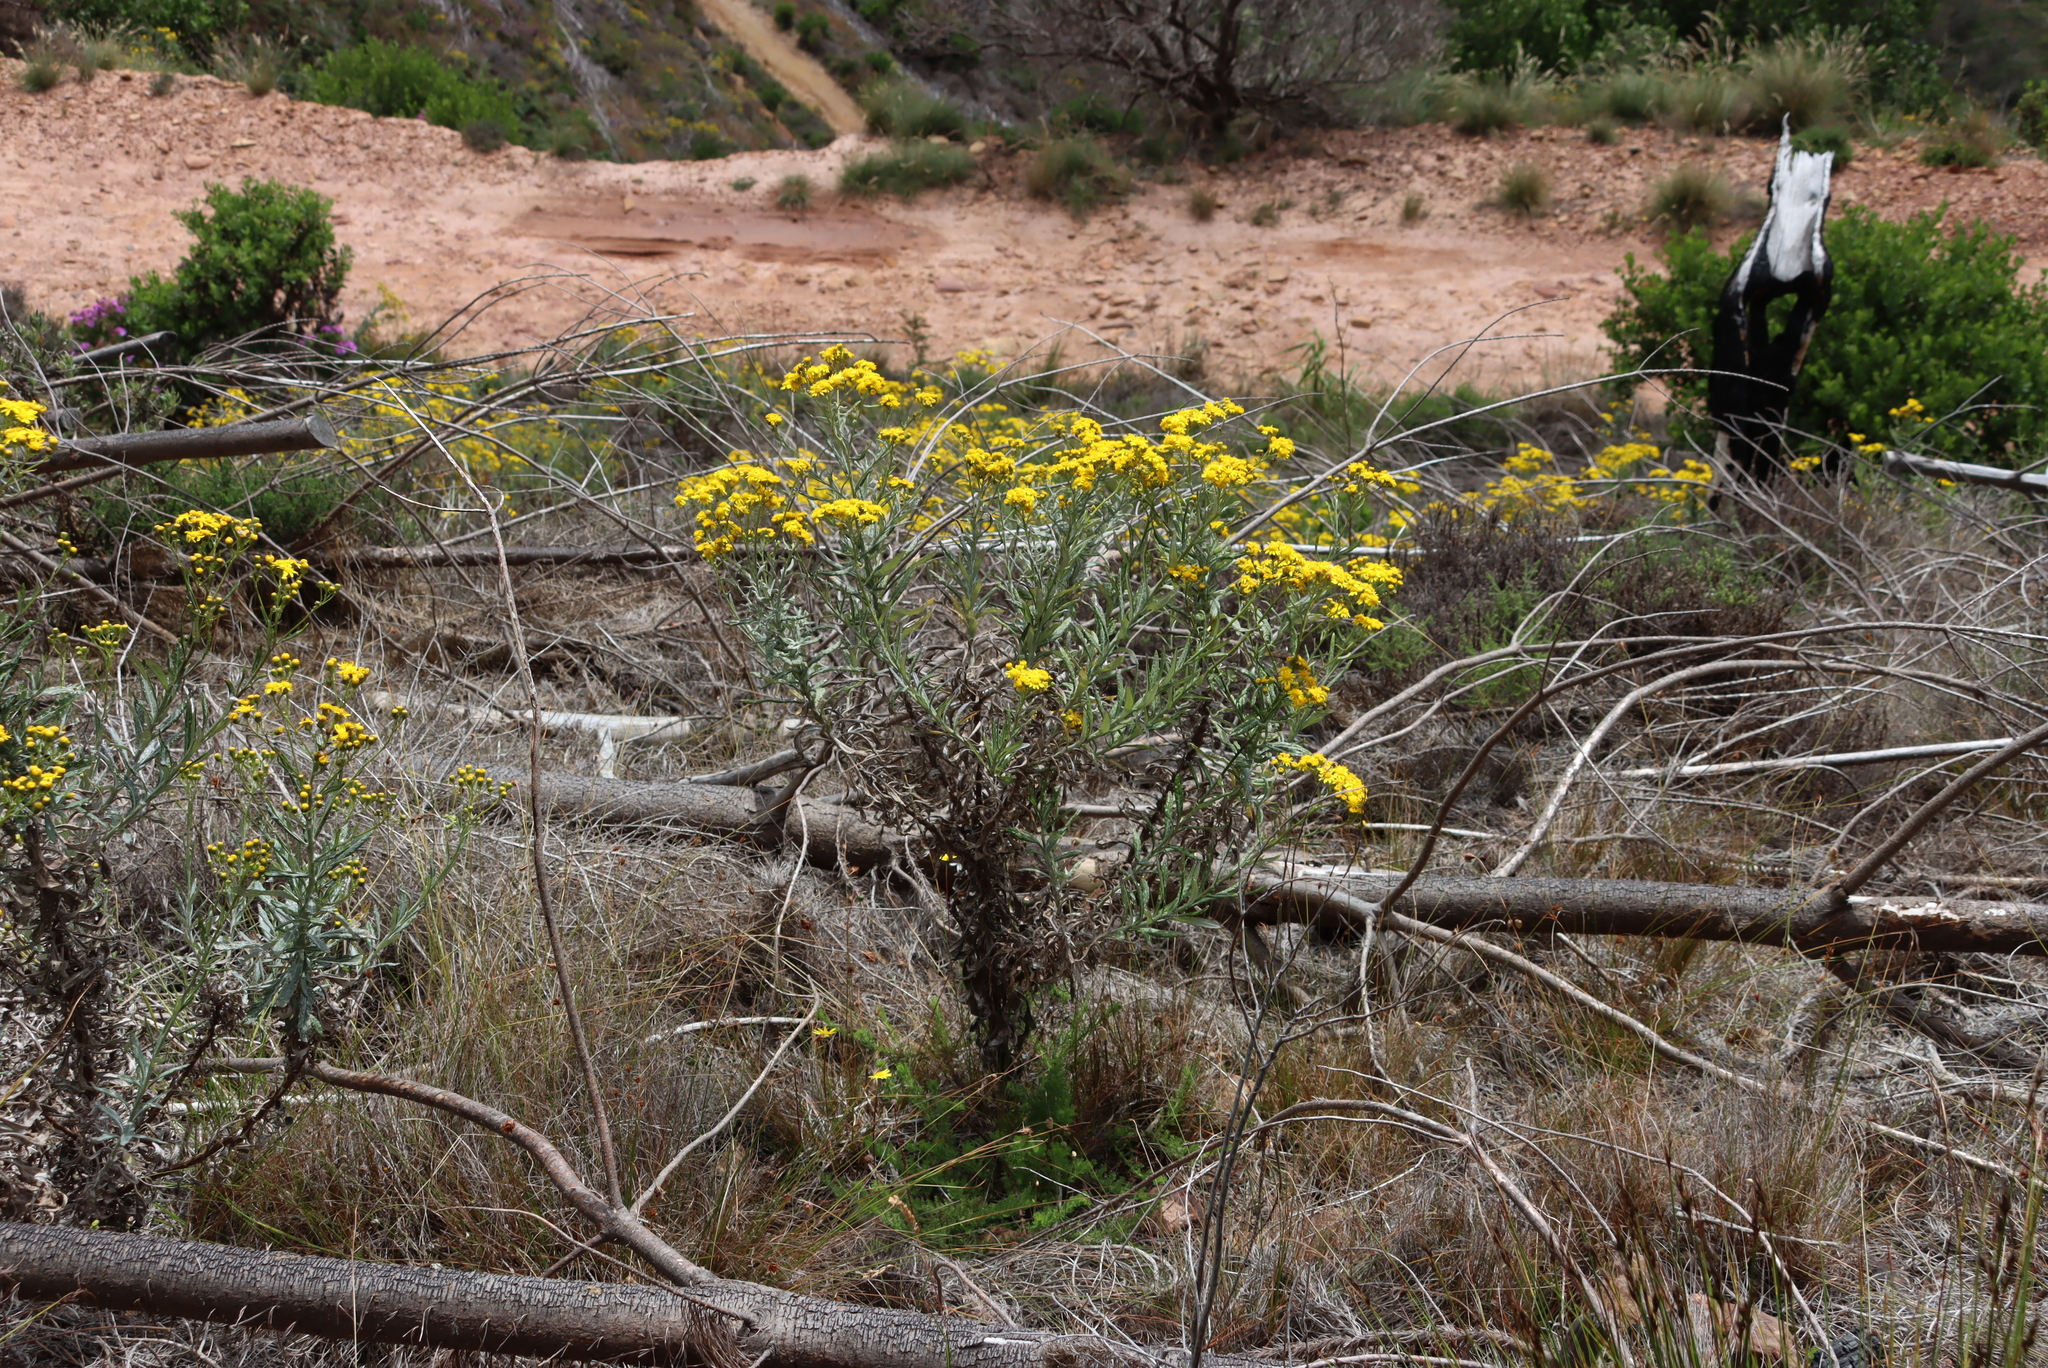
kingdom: Plantae
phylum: Tracheophyta
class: Magnoliopsida
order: Asterales
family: Asteraceae
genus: Senecio
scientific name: Senecio pterophorus
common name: Shoddy ragwort
